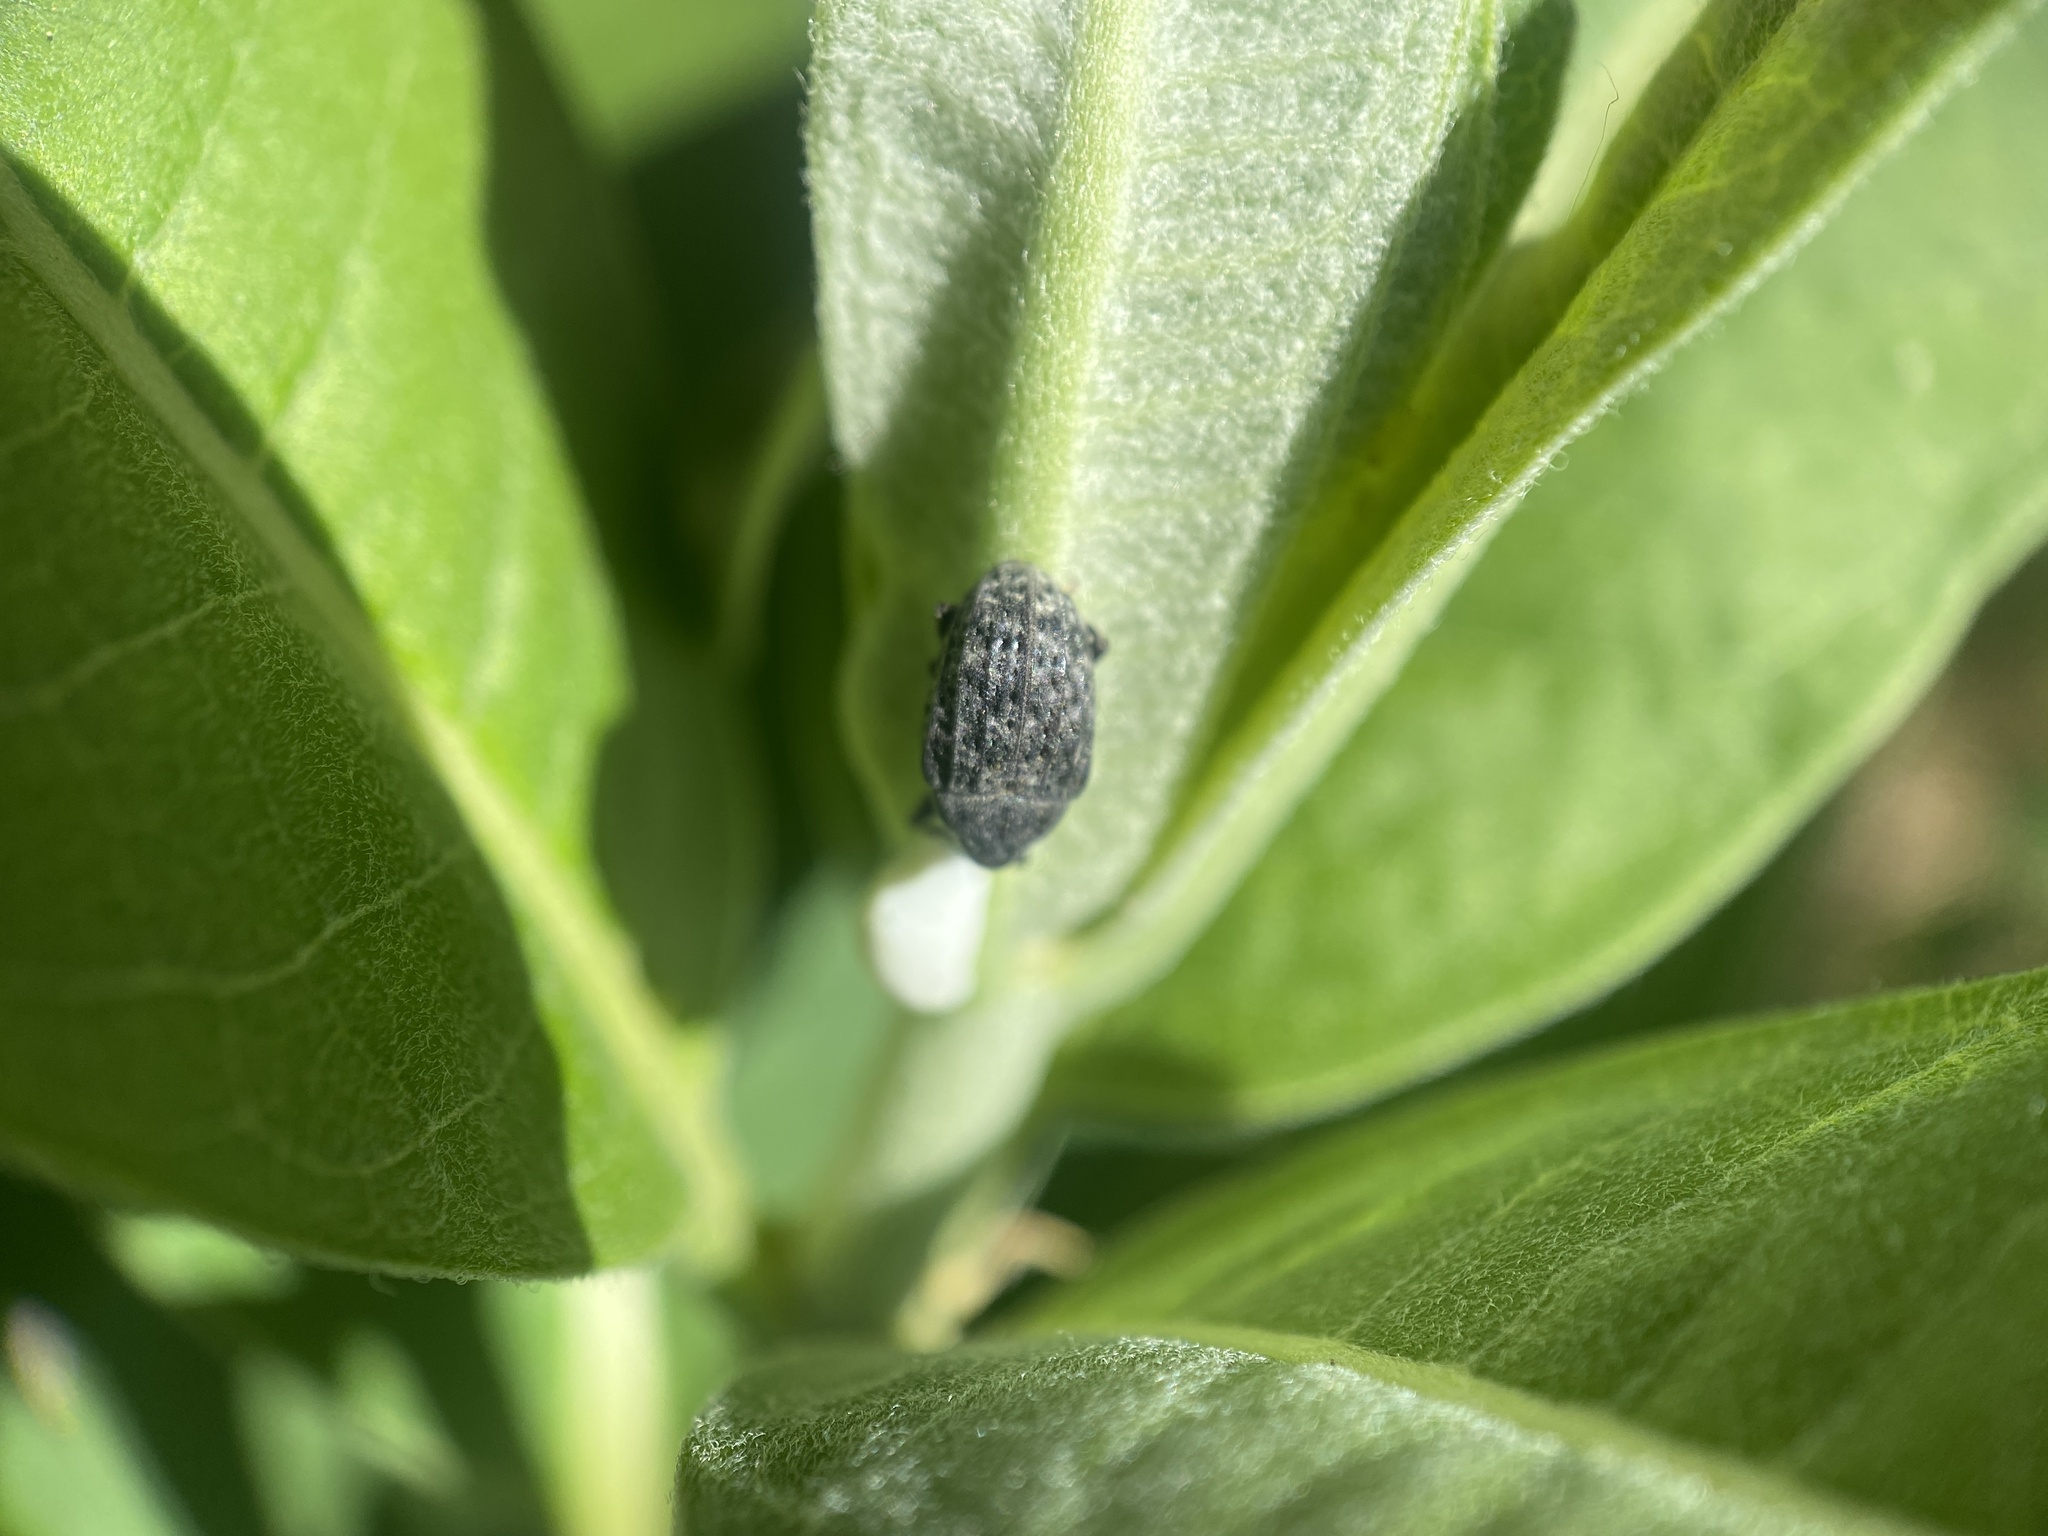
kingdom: Animalia
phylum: Arthropoda
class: Insecta
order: Coleoptera
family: Curculionidae
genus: Rhyssomatus
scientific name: Rhyssomatus lineaticollis
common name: Milkweed stem weevil
